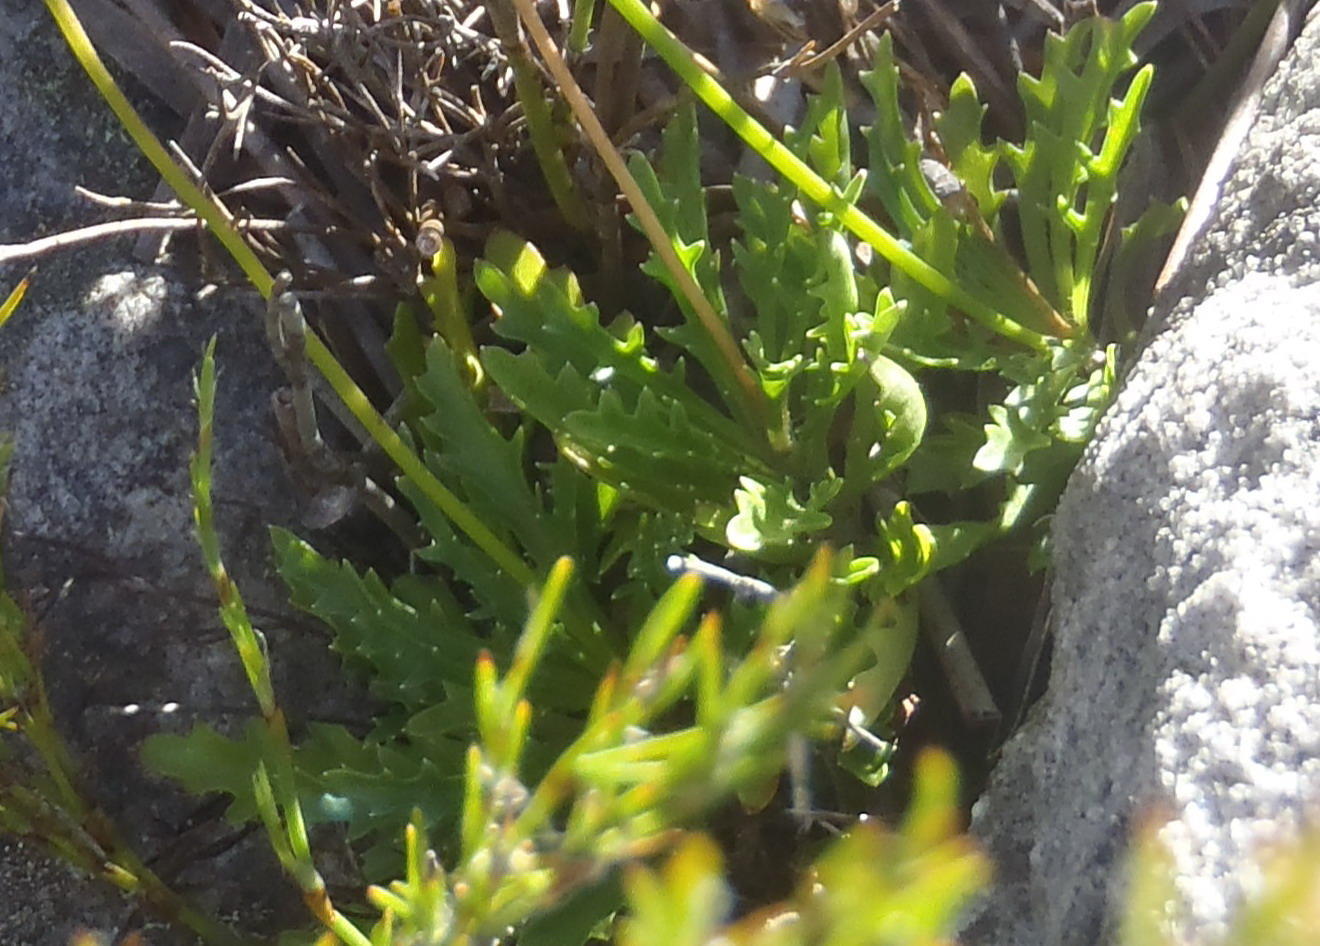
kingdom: Plantae
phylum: Tracheophyta
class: Magnoliopsida
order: Asterales
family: Campanulaceae
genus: Lobelia
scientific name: Lobelia coronopifolia
